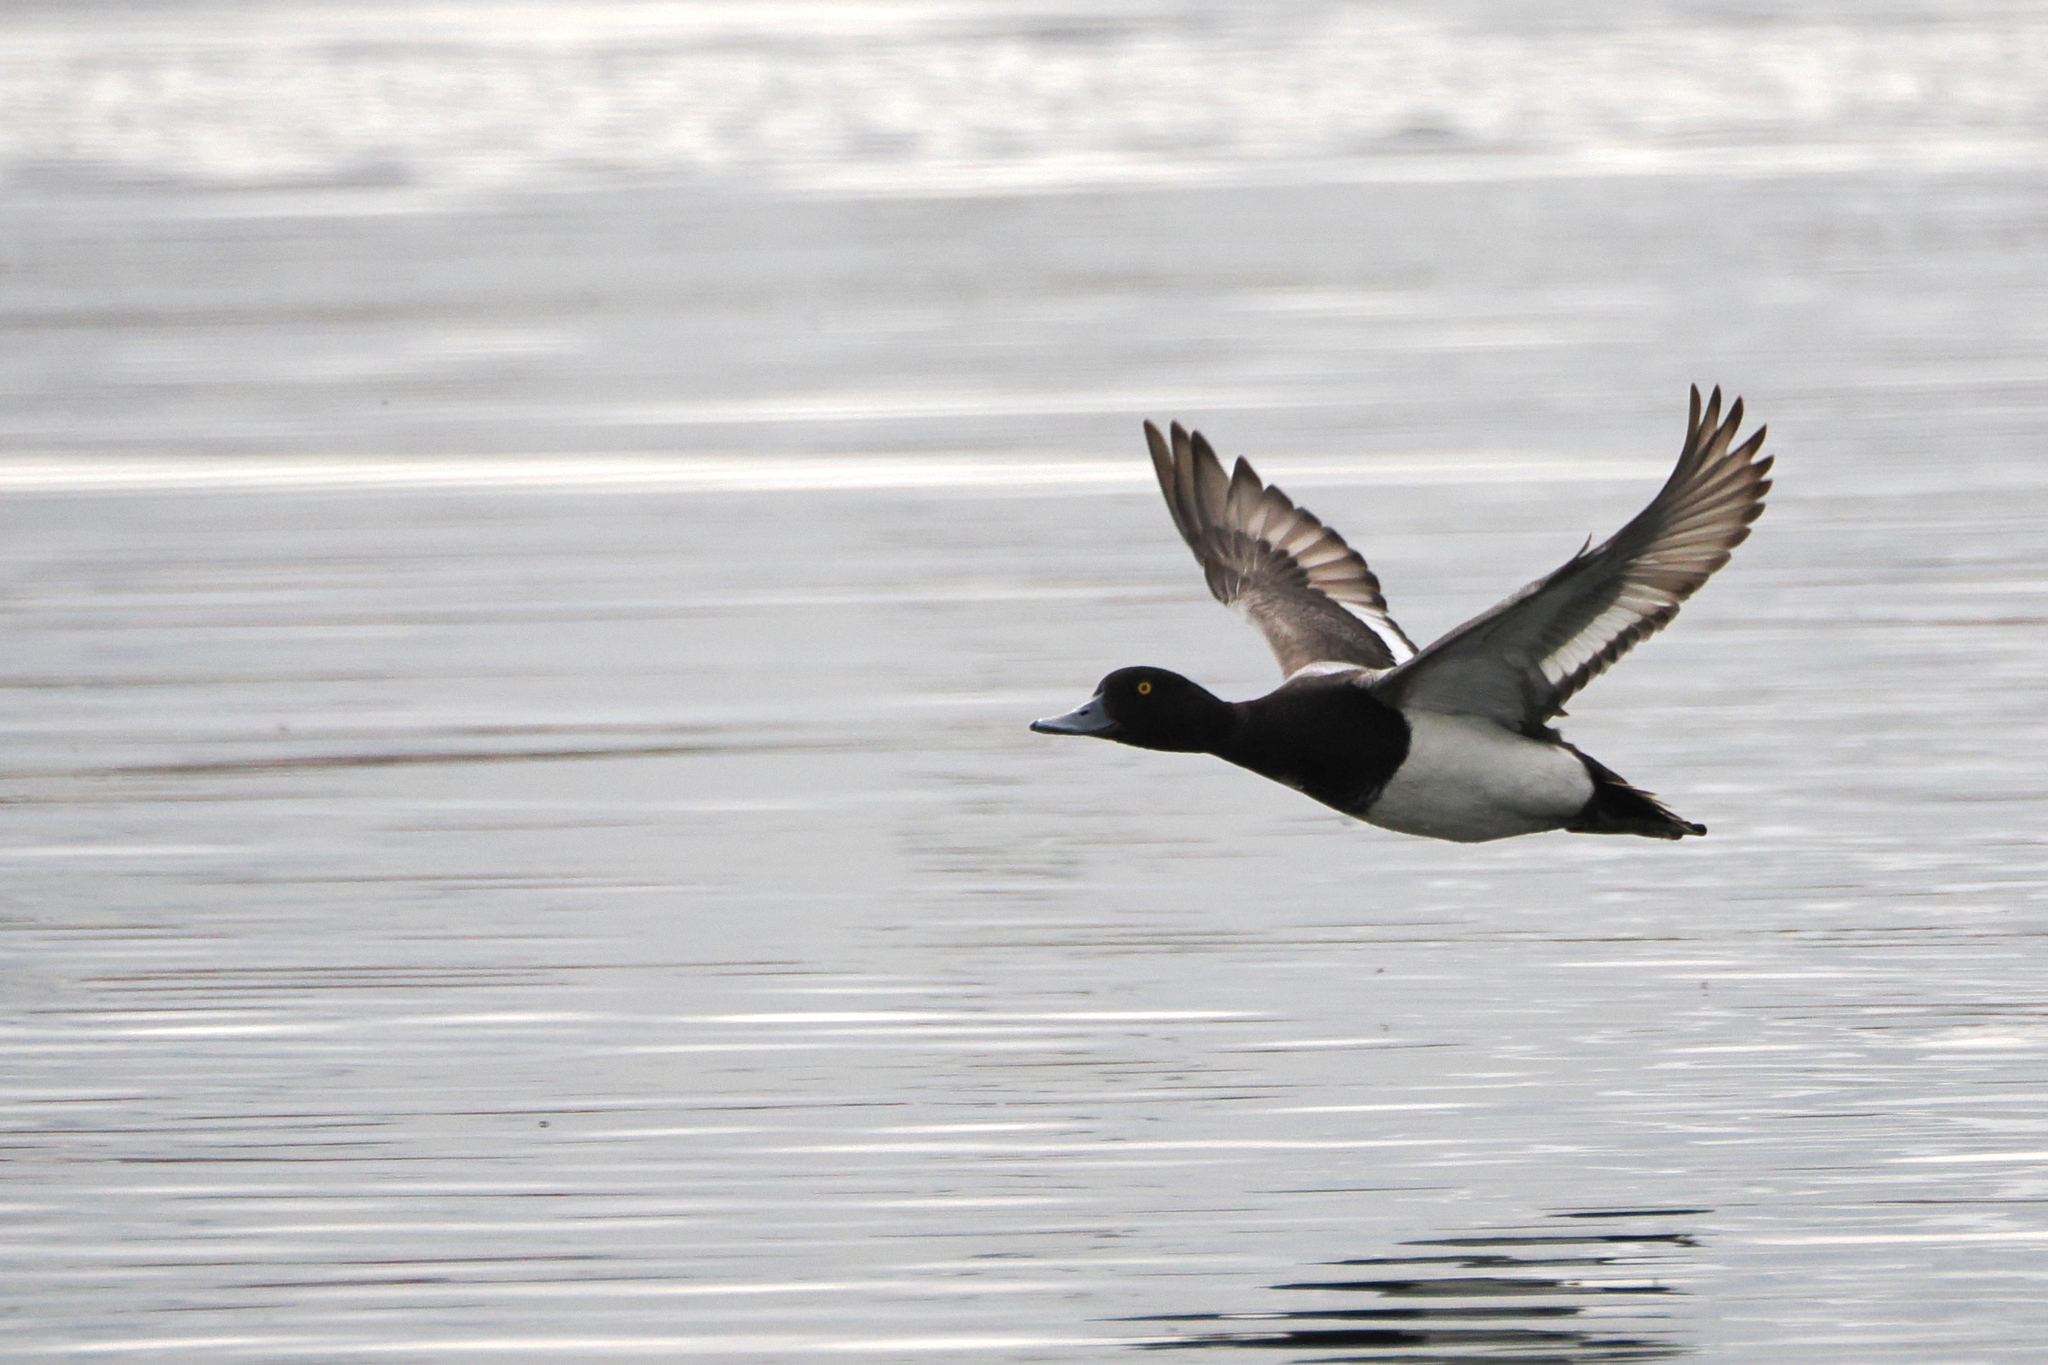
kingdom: Animalia
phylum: Chordata
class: Aves
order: Anseriformes
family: Anatidae
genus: Aythya
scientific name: Aythya affinis
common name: Lesser scaup
